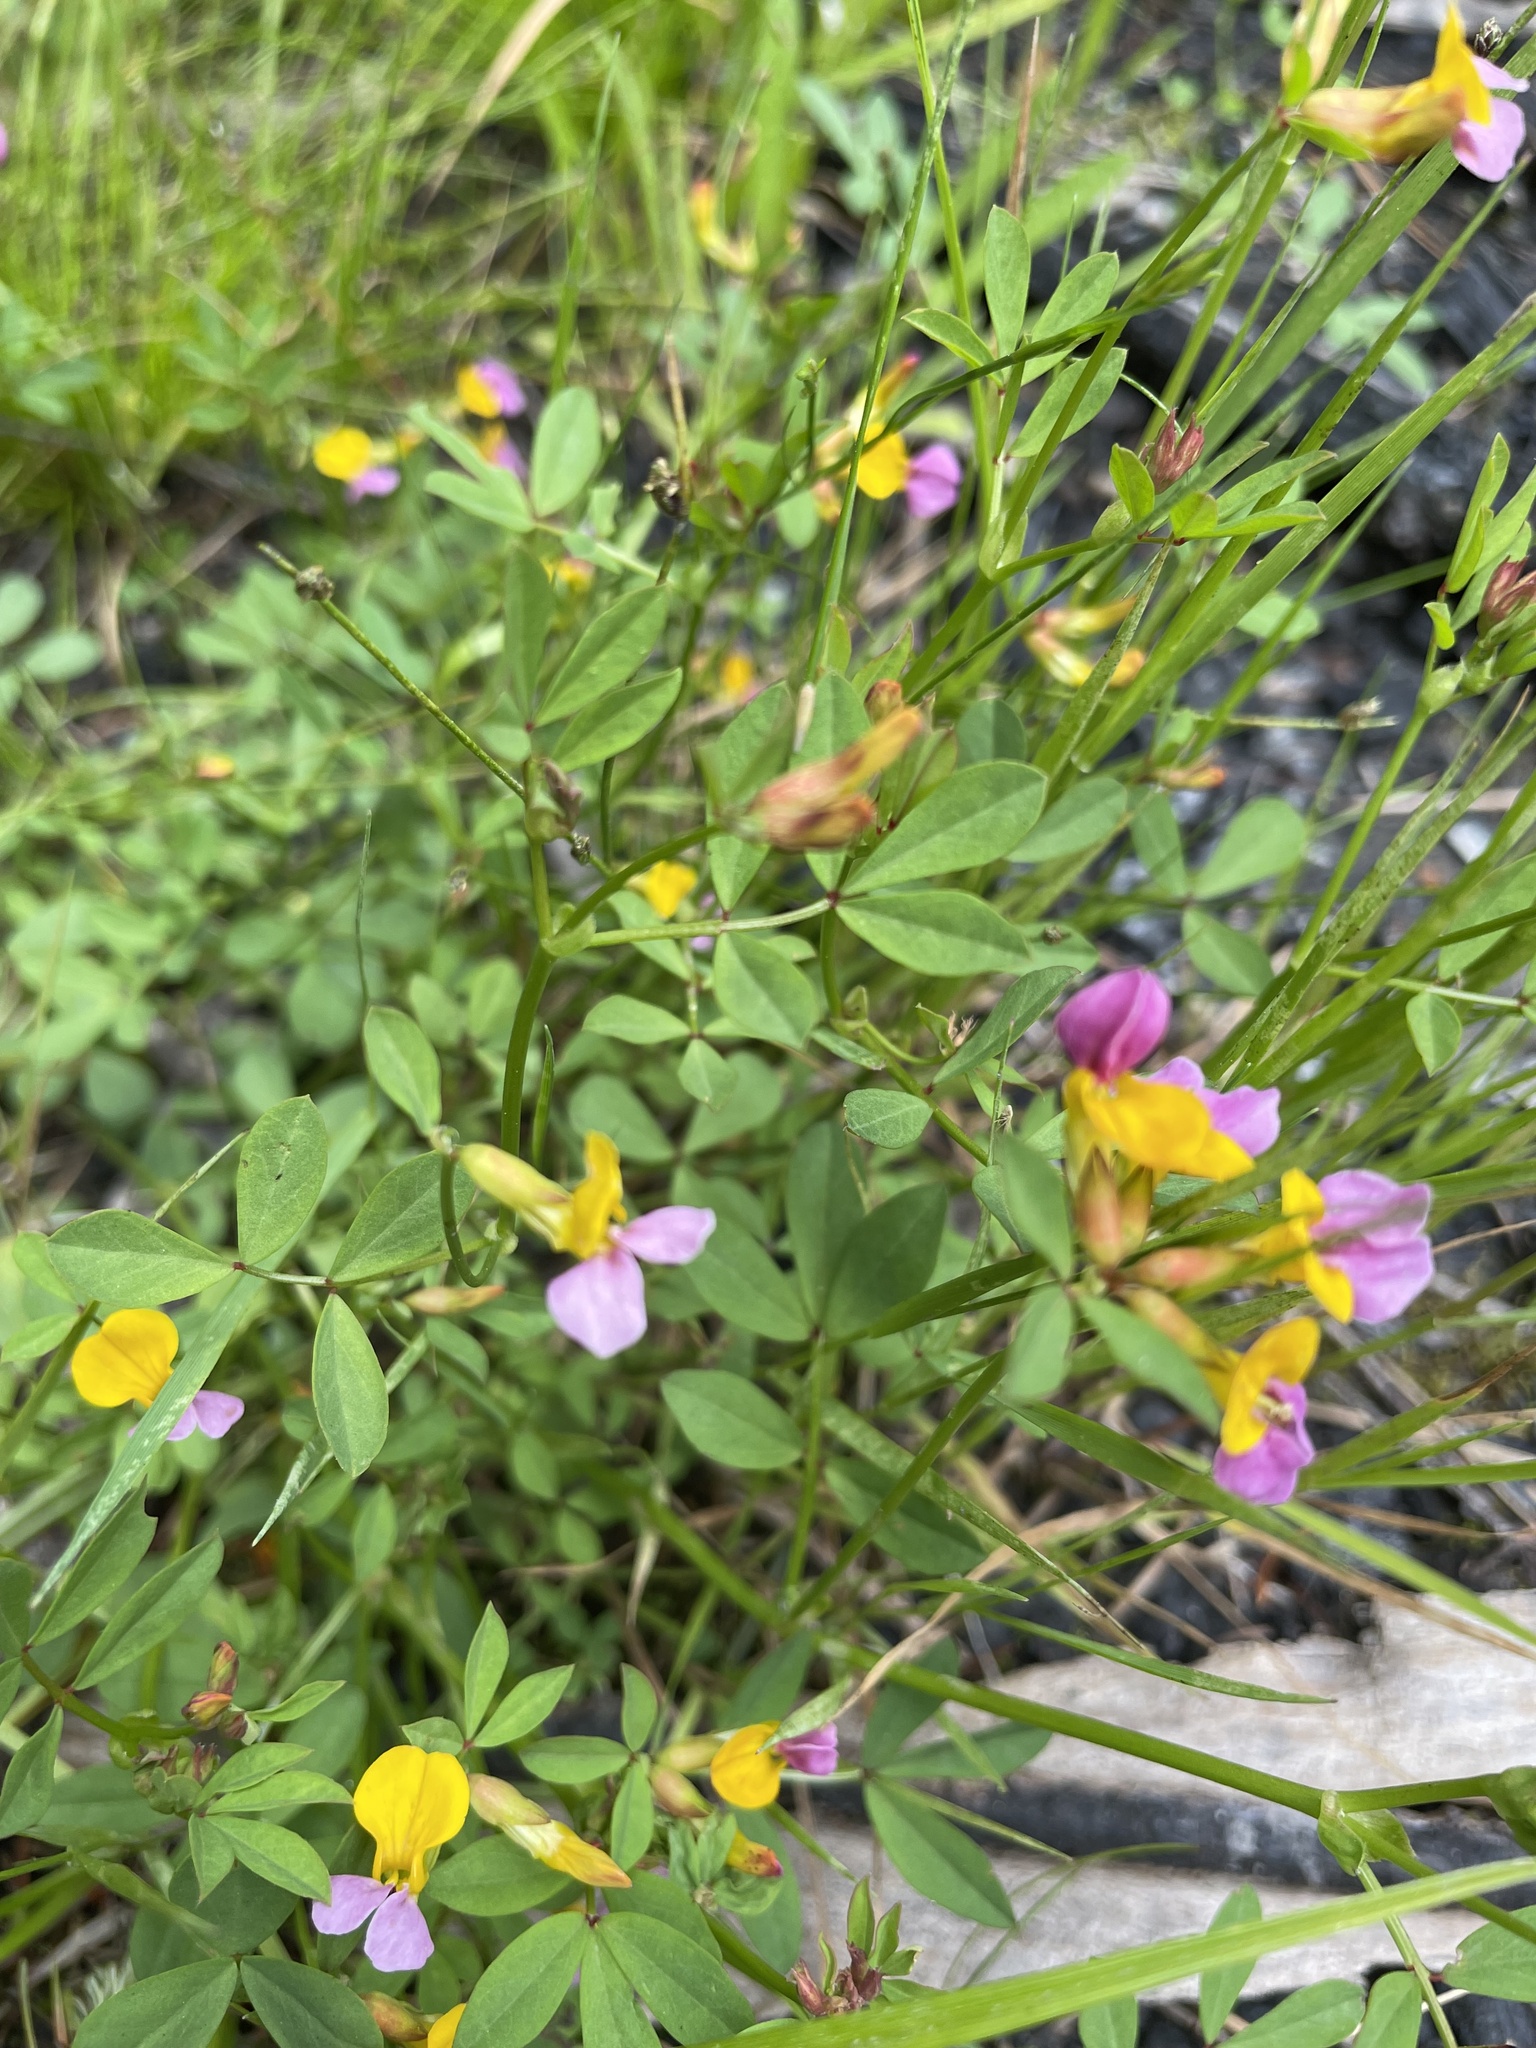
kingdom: Plantae
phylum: Tracheophyta
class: Magnoliopsida
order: Fabales
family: Fabaceae
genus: Hosackia
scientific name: Hosackia gracilis
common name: Seaside bird's-foot lotus
